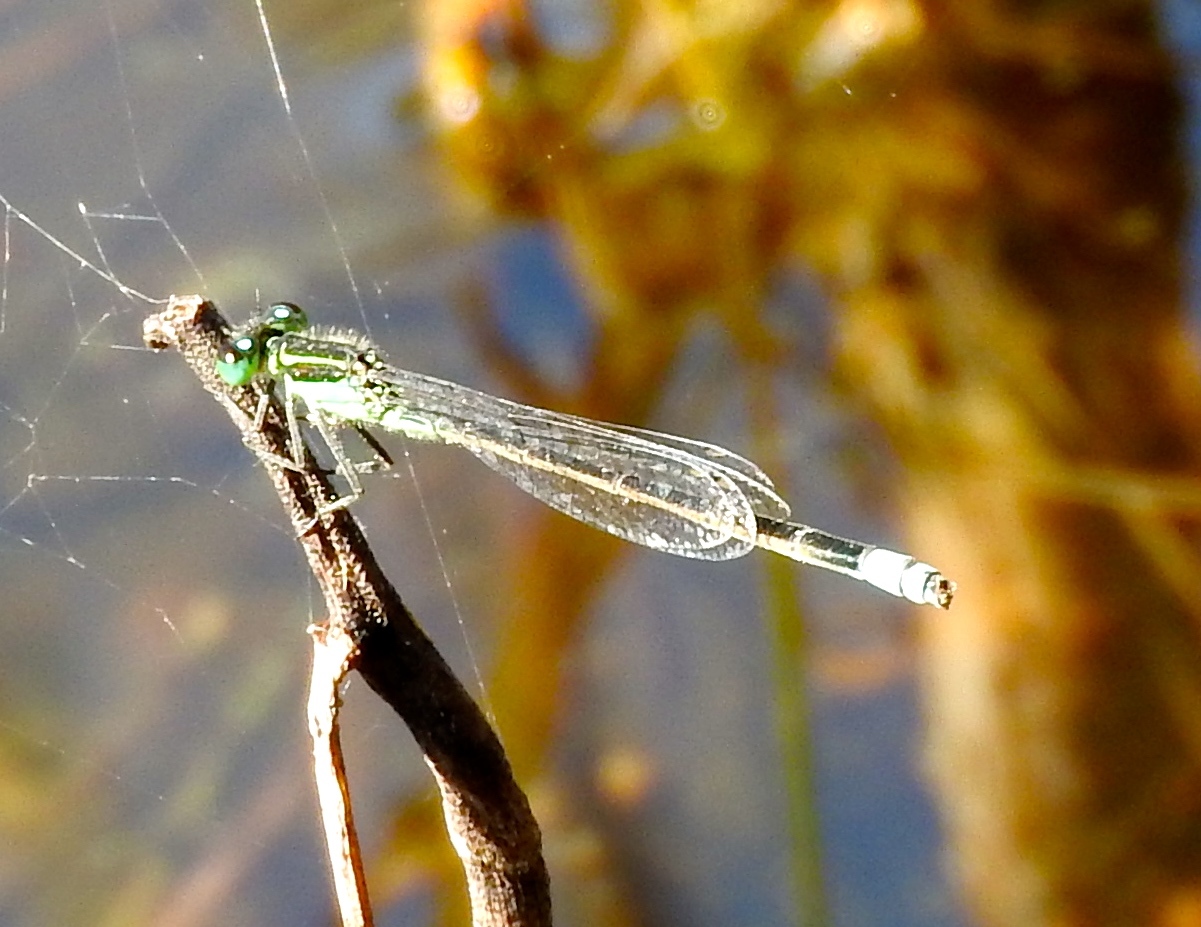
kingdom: Animalia
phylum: Arthropoda
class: Insecta
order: Odonata
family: Coenagrionidae
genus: Ischnura
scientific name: Ischnura ramburii
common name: Rambur's forktail
